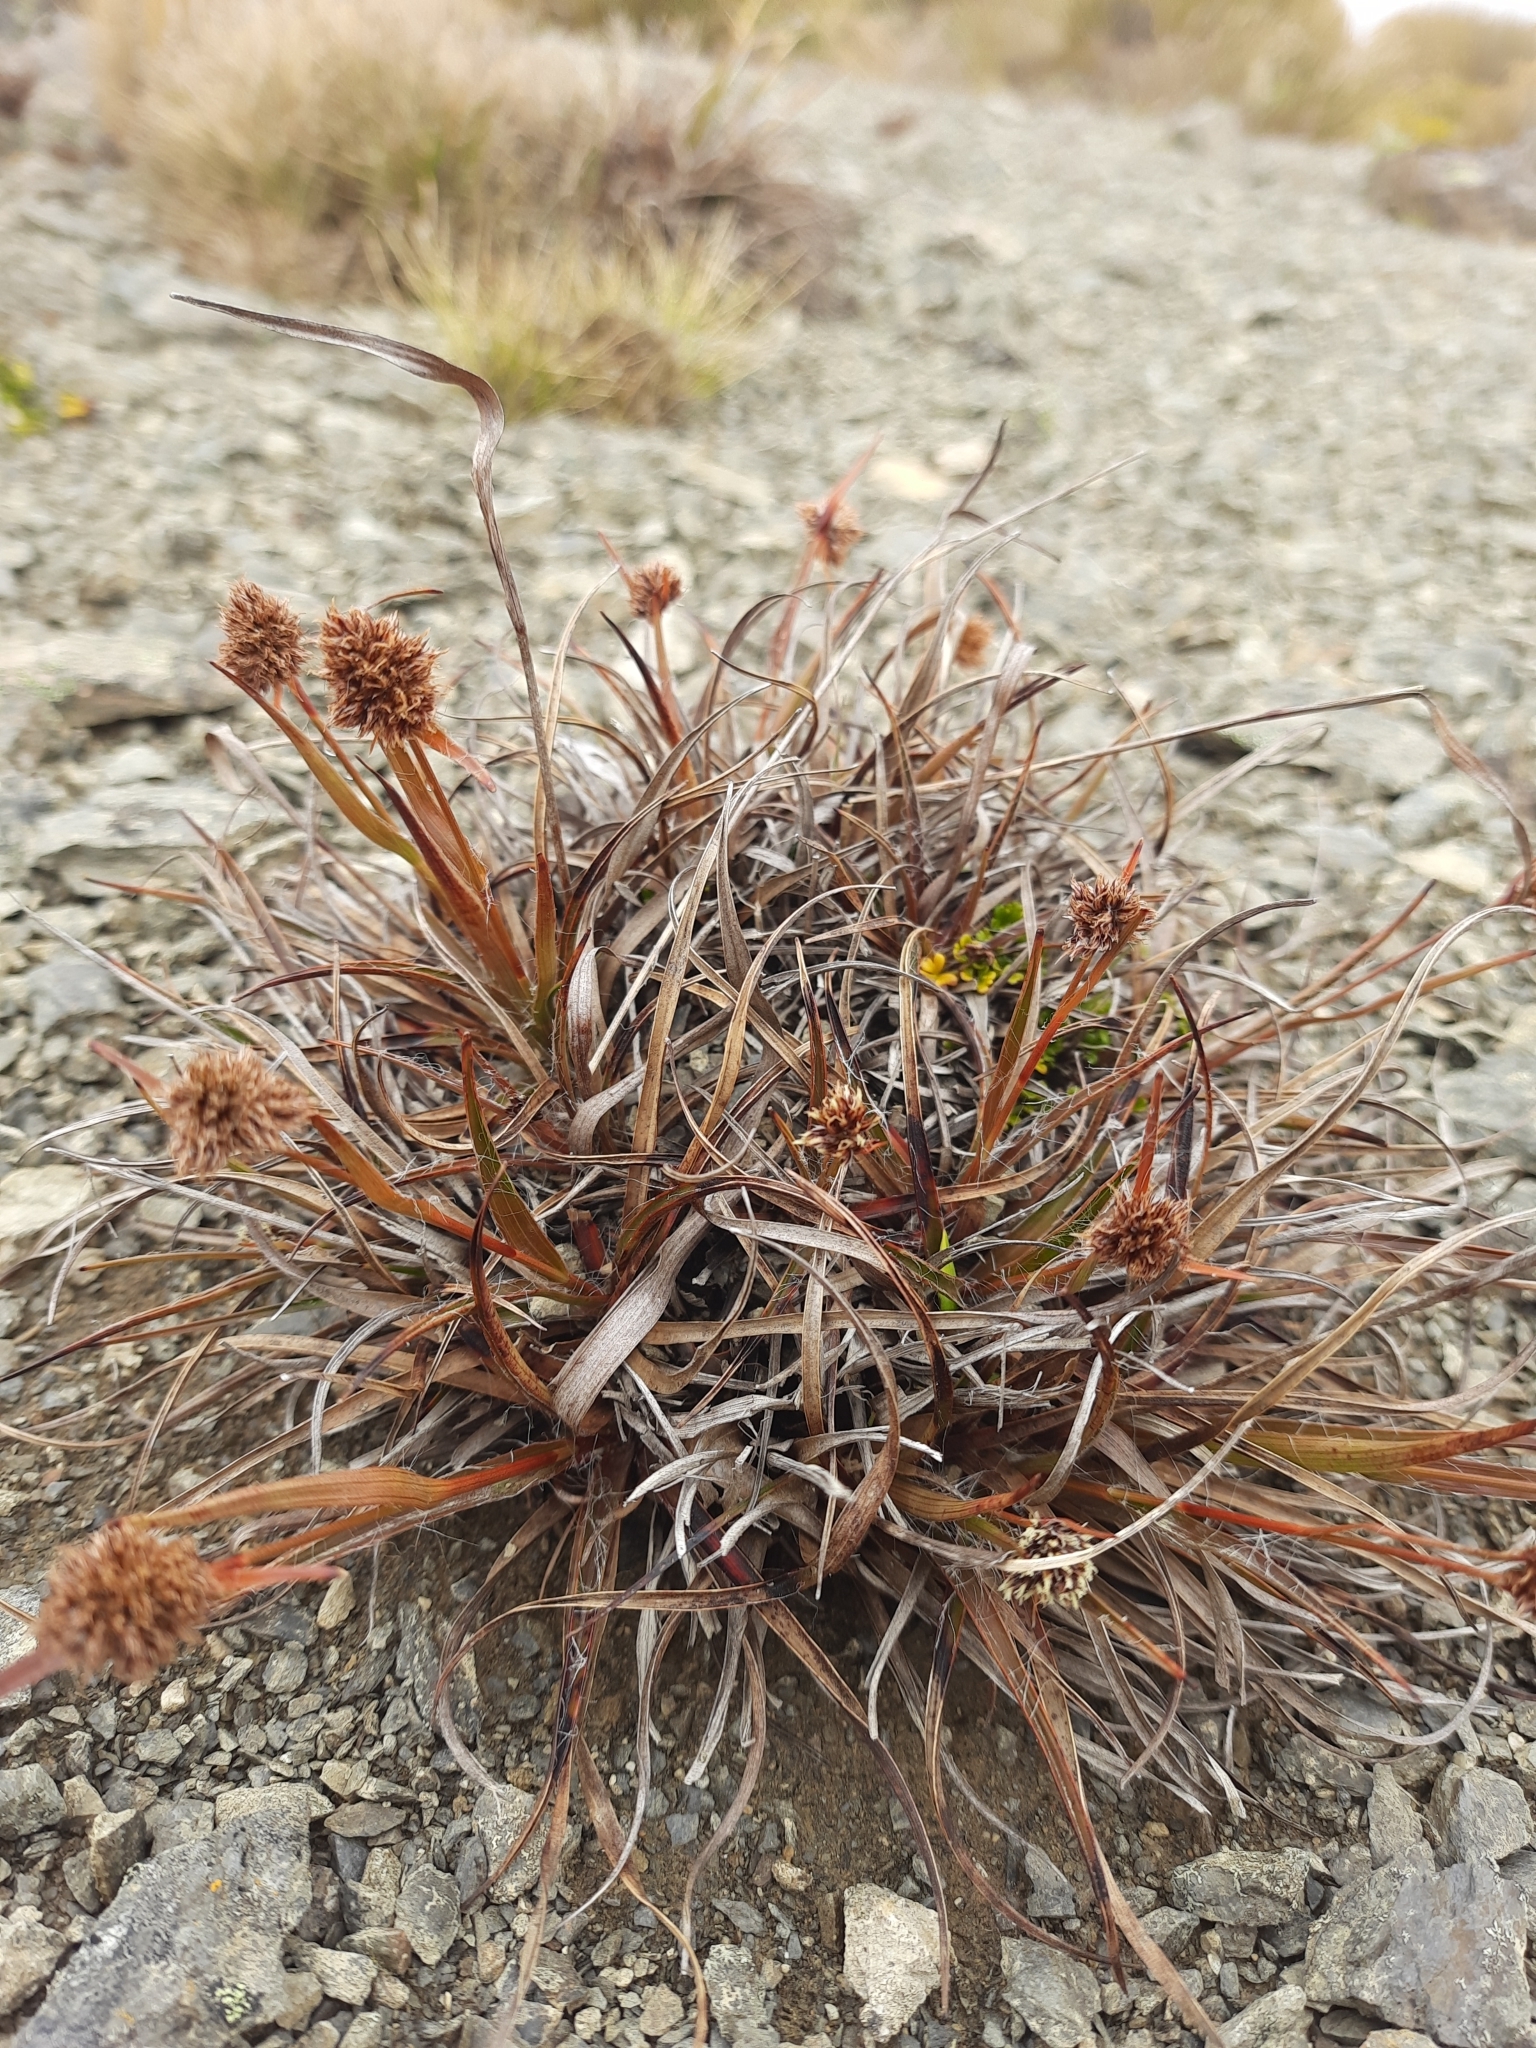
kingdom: Plantae
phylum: Tracheophyta
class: Liliopsida
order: Poales
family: Juncaceae
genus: Luzula
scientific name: Luzula rufa
